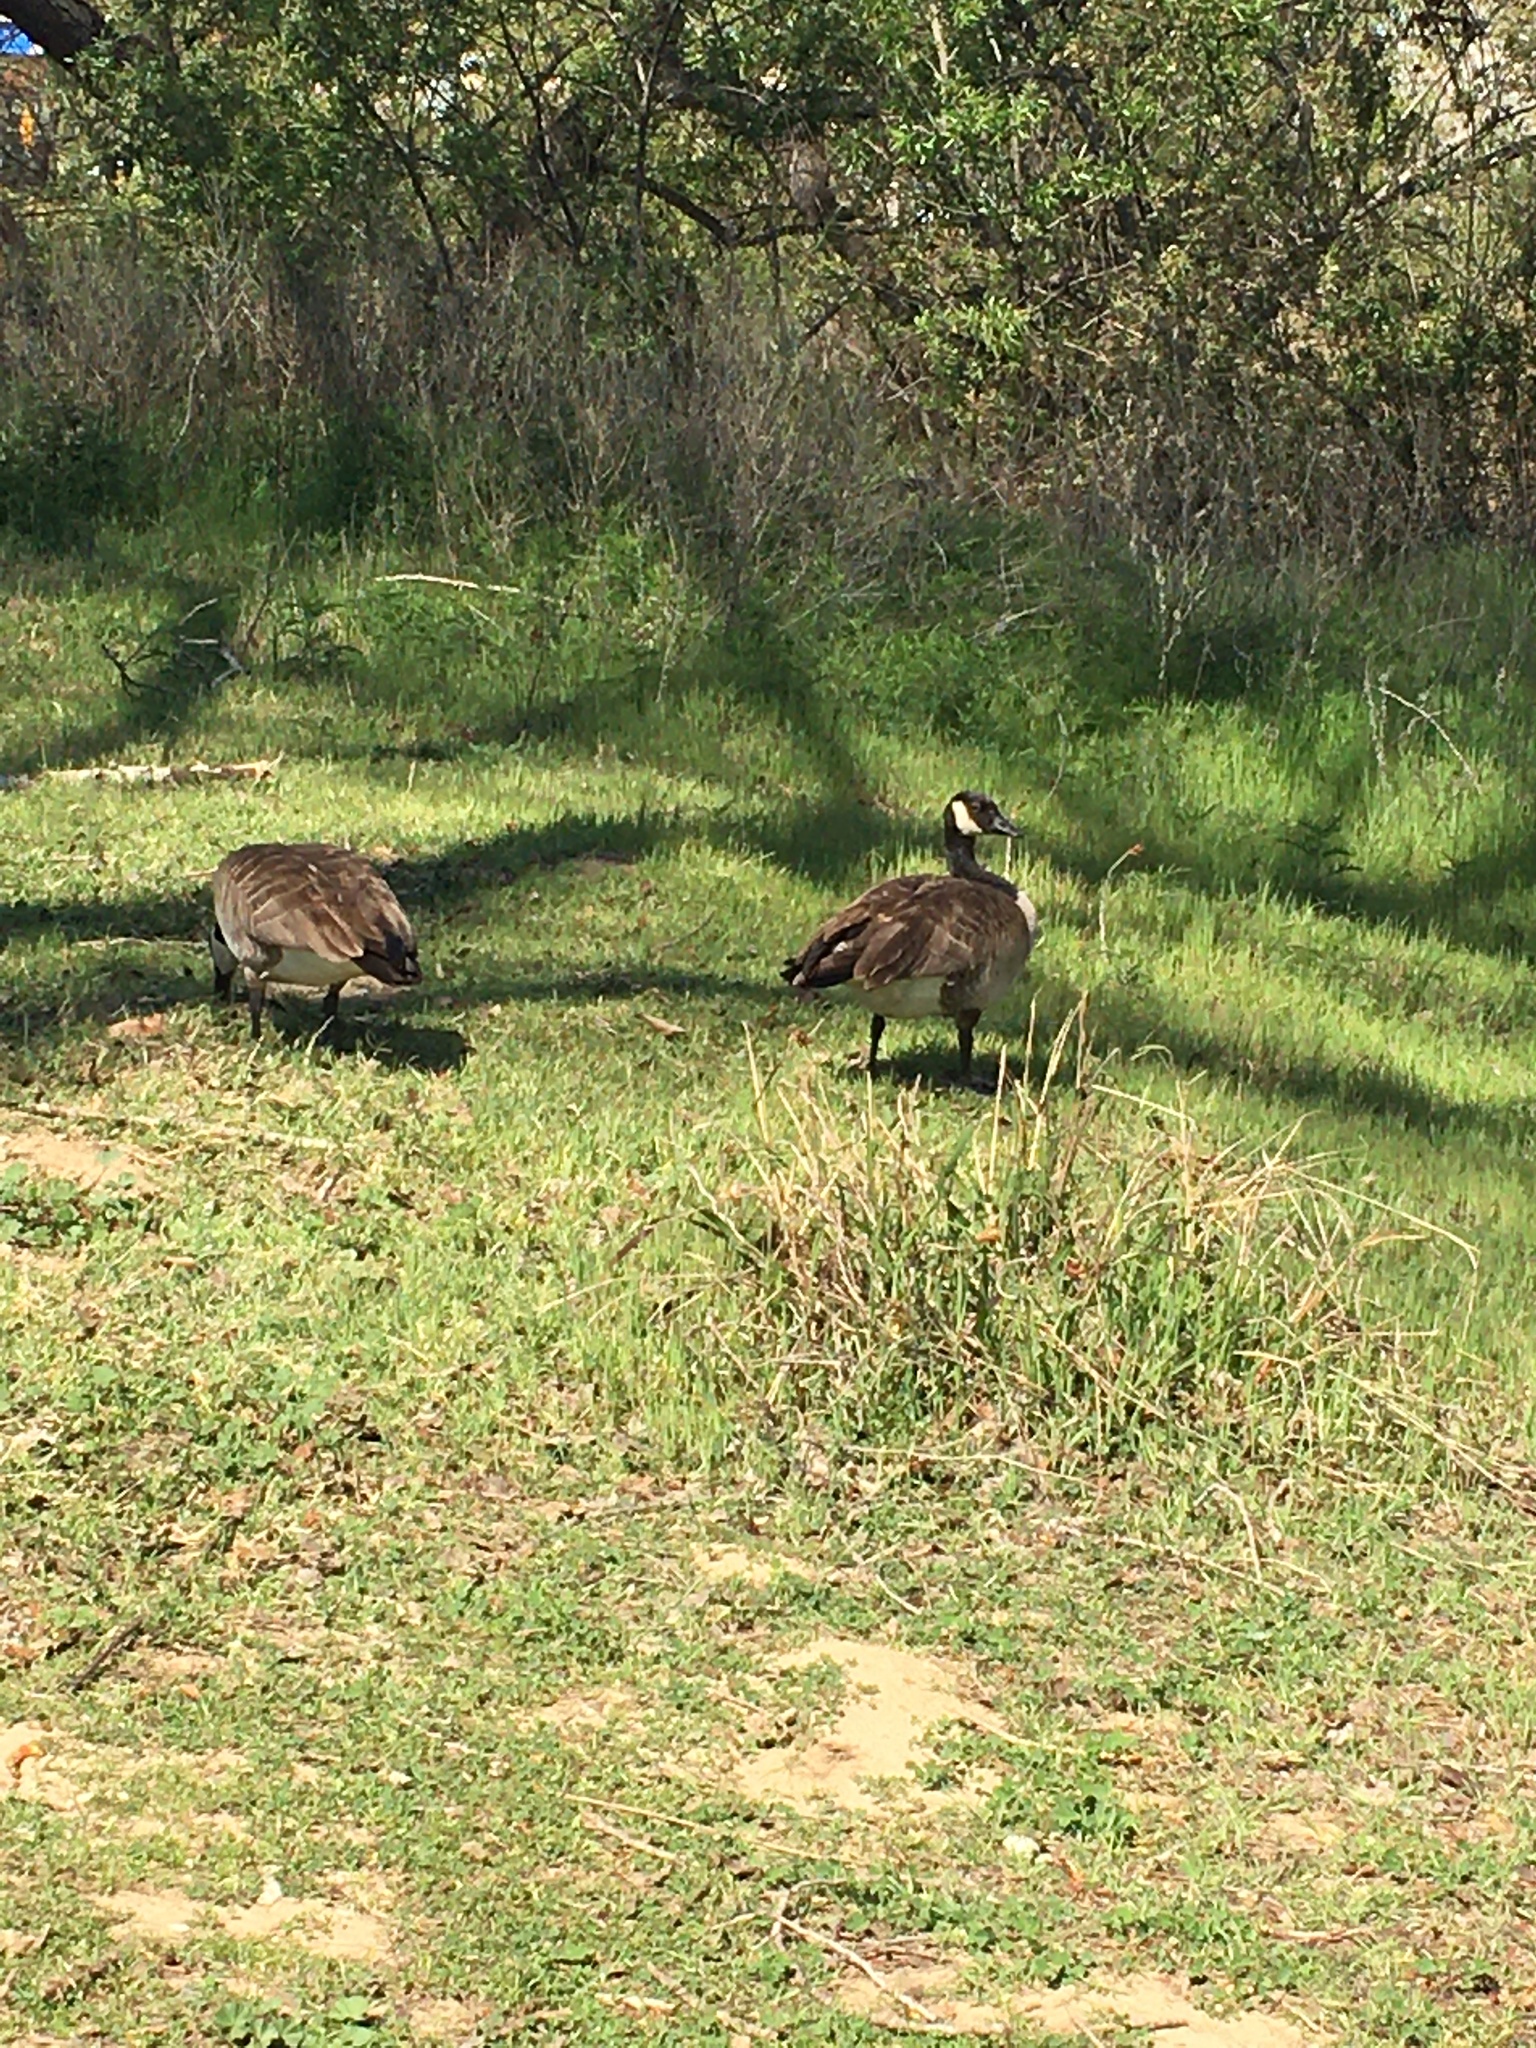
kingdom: Animalia
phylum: Chordata
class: Aves
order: Anseriformes
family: Anatidae
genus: Branta
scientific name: Branta canadensis
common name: Canada goose
